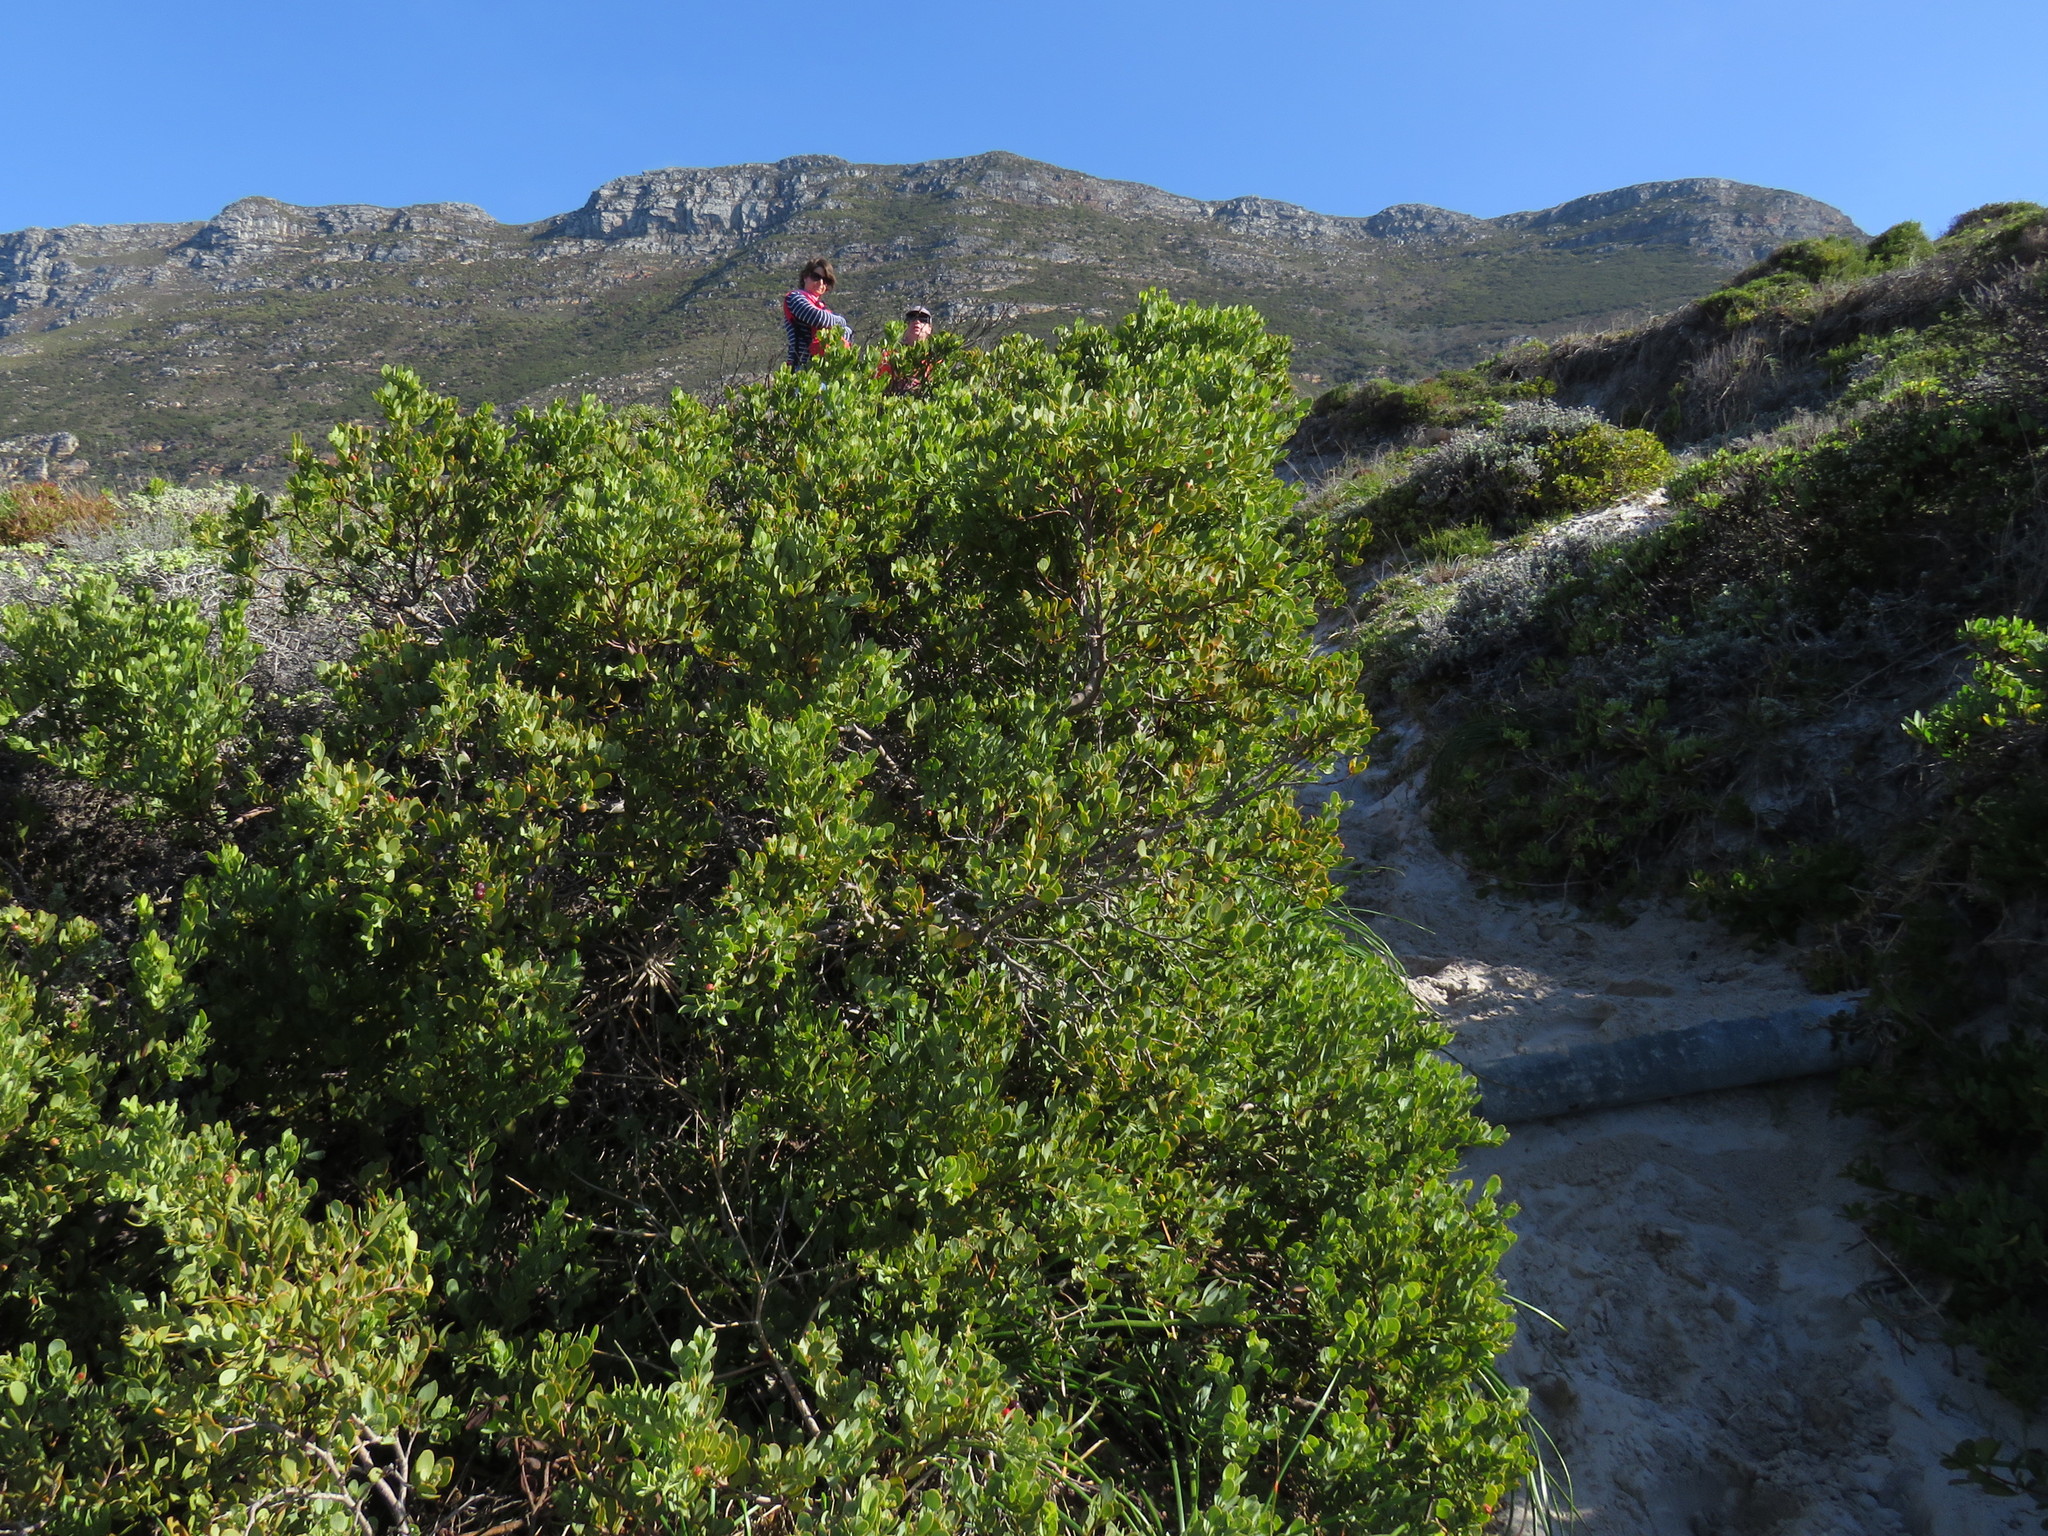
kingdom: Plantae
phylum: Tracheophyta
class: Magnoliopsida
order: Santalales
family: Santalaceae
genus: Osyris
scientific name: Osyris compressa
